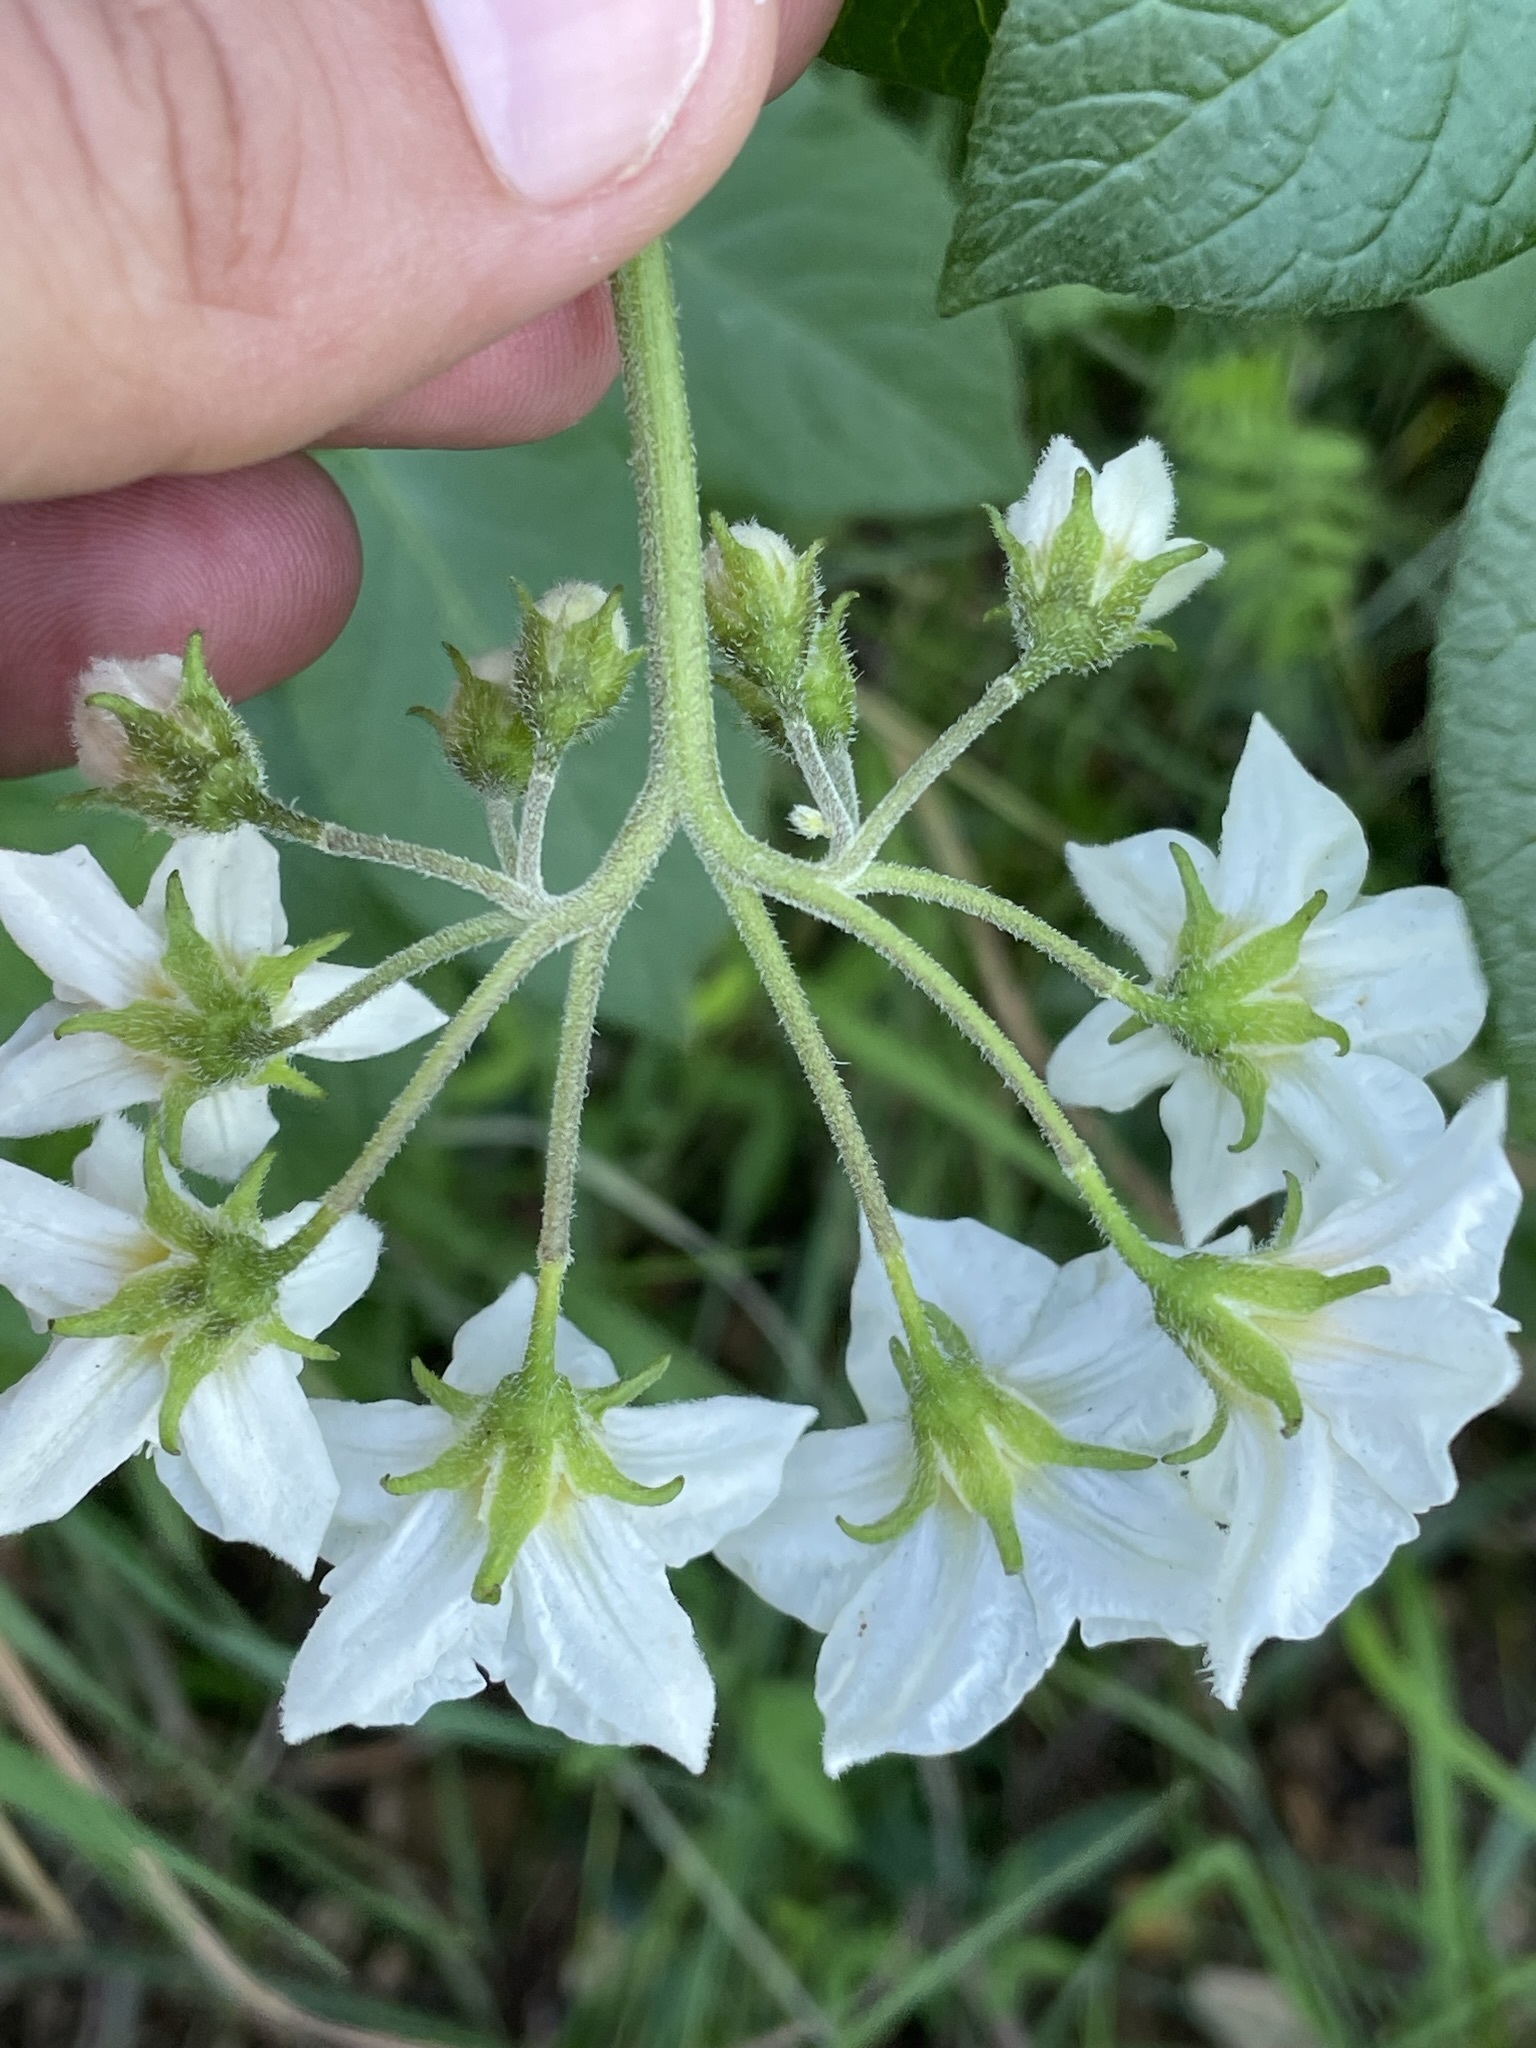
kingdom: Plantae
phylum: Tracheophyta
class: Magnoliopsida
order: Solanales
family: Solanaceae
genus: Solanum
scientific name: Solanum tuberosum
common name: Potato
